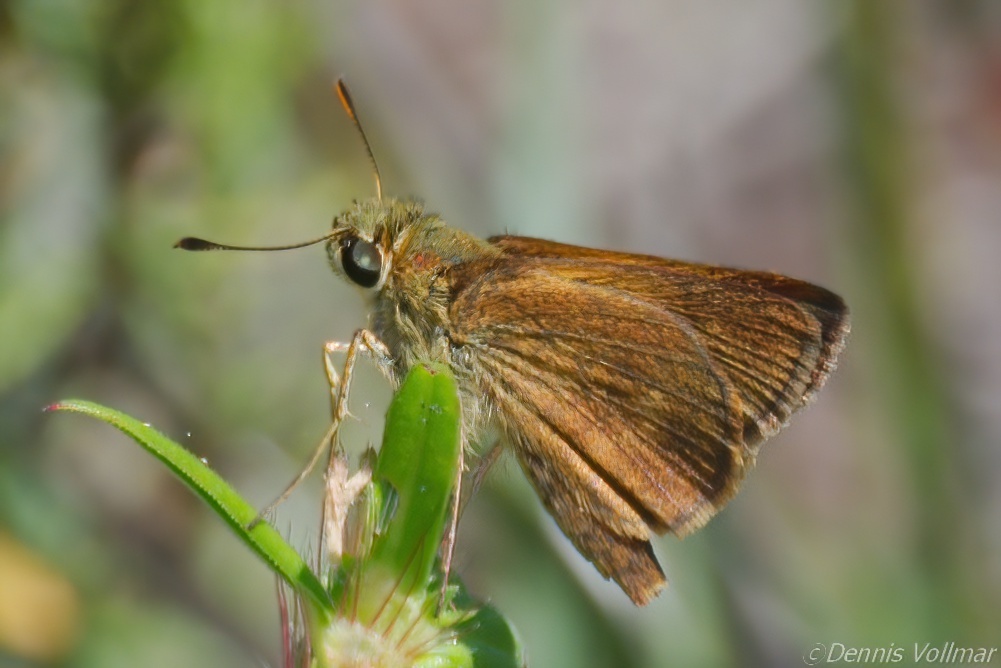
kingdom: Animalia
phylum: Arthropoda
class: Insecta
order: Lepidoptera
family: Hesperiidae
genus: Polites
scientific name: Polites otho
